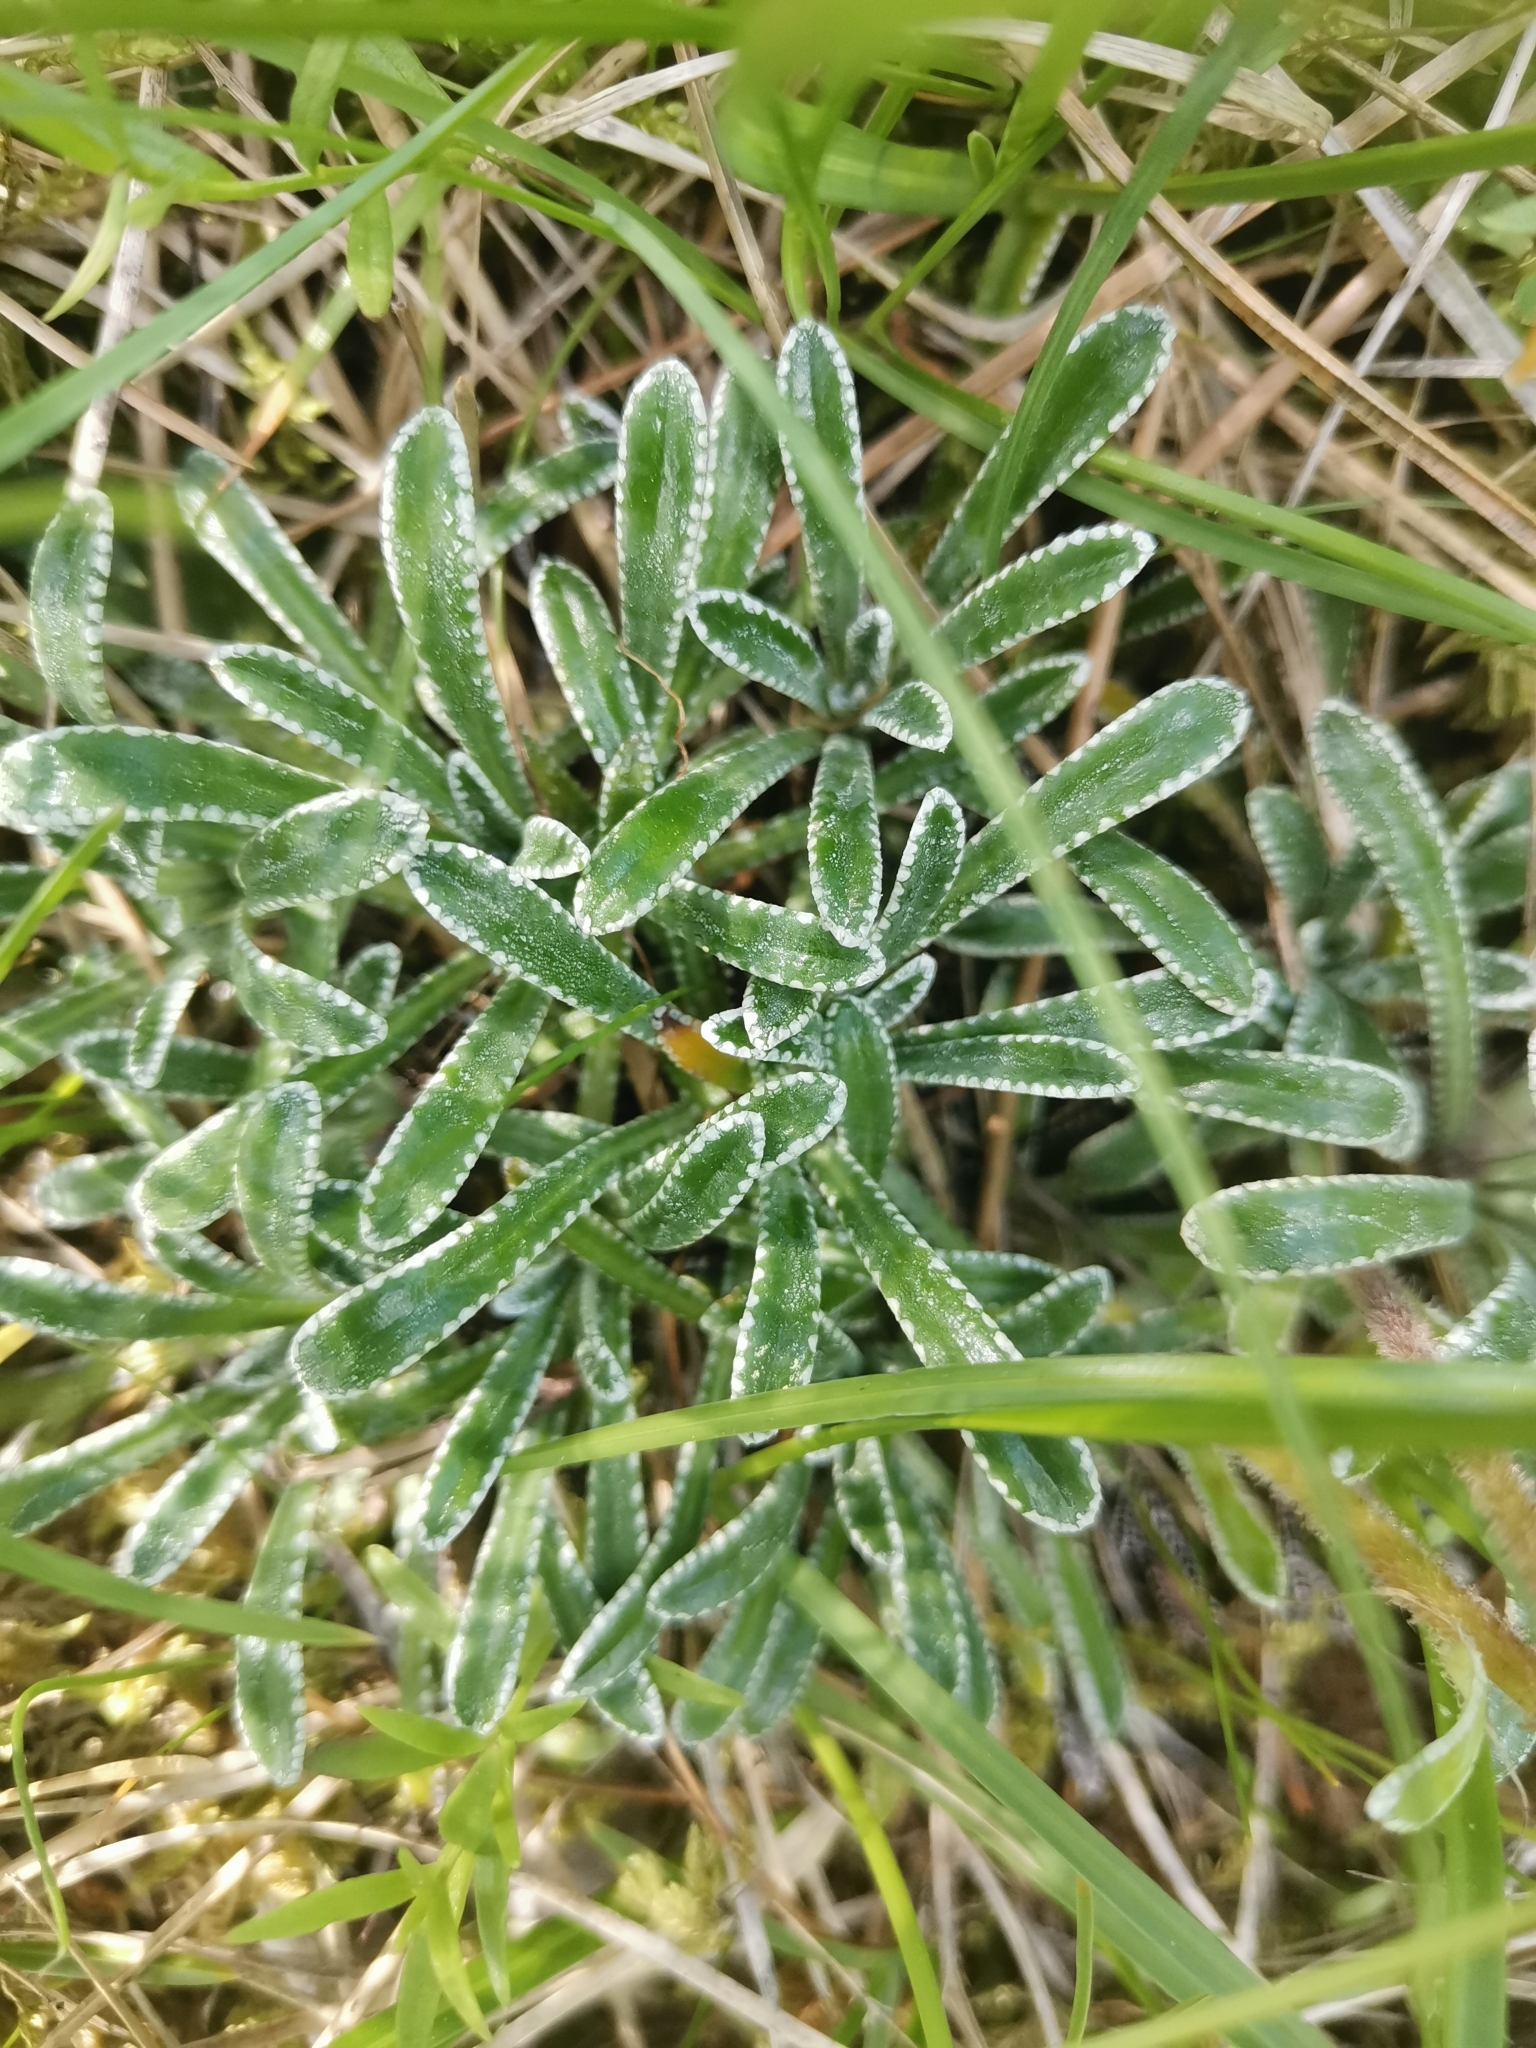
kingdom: Plantae
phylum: Tracheophyta
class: Magnoliopsida
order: Saxifragales
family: Saxifragaceae
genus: Saxifraga
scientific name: Saxifraga crustata
